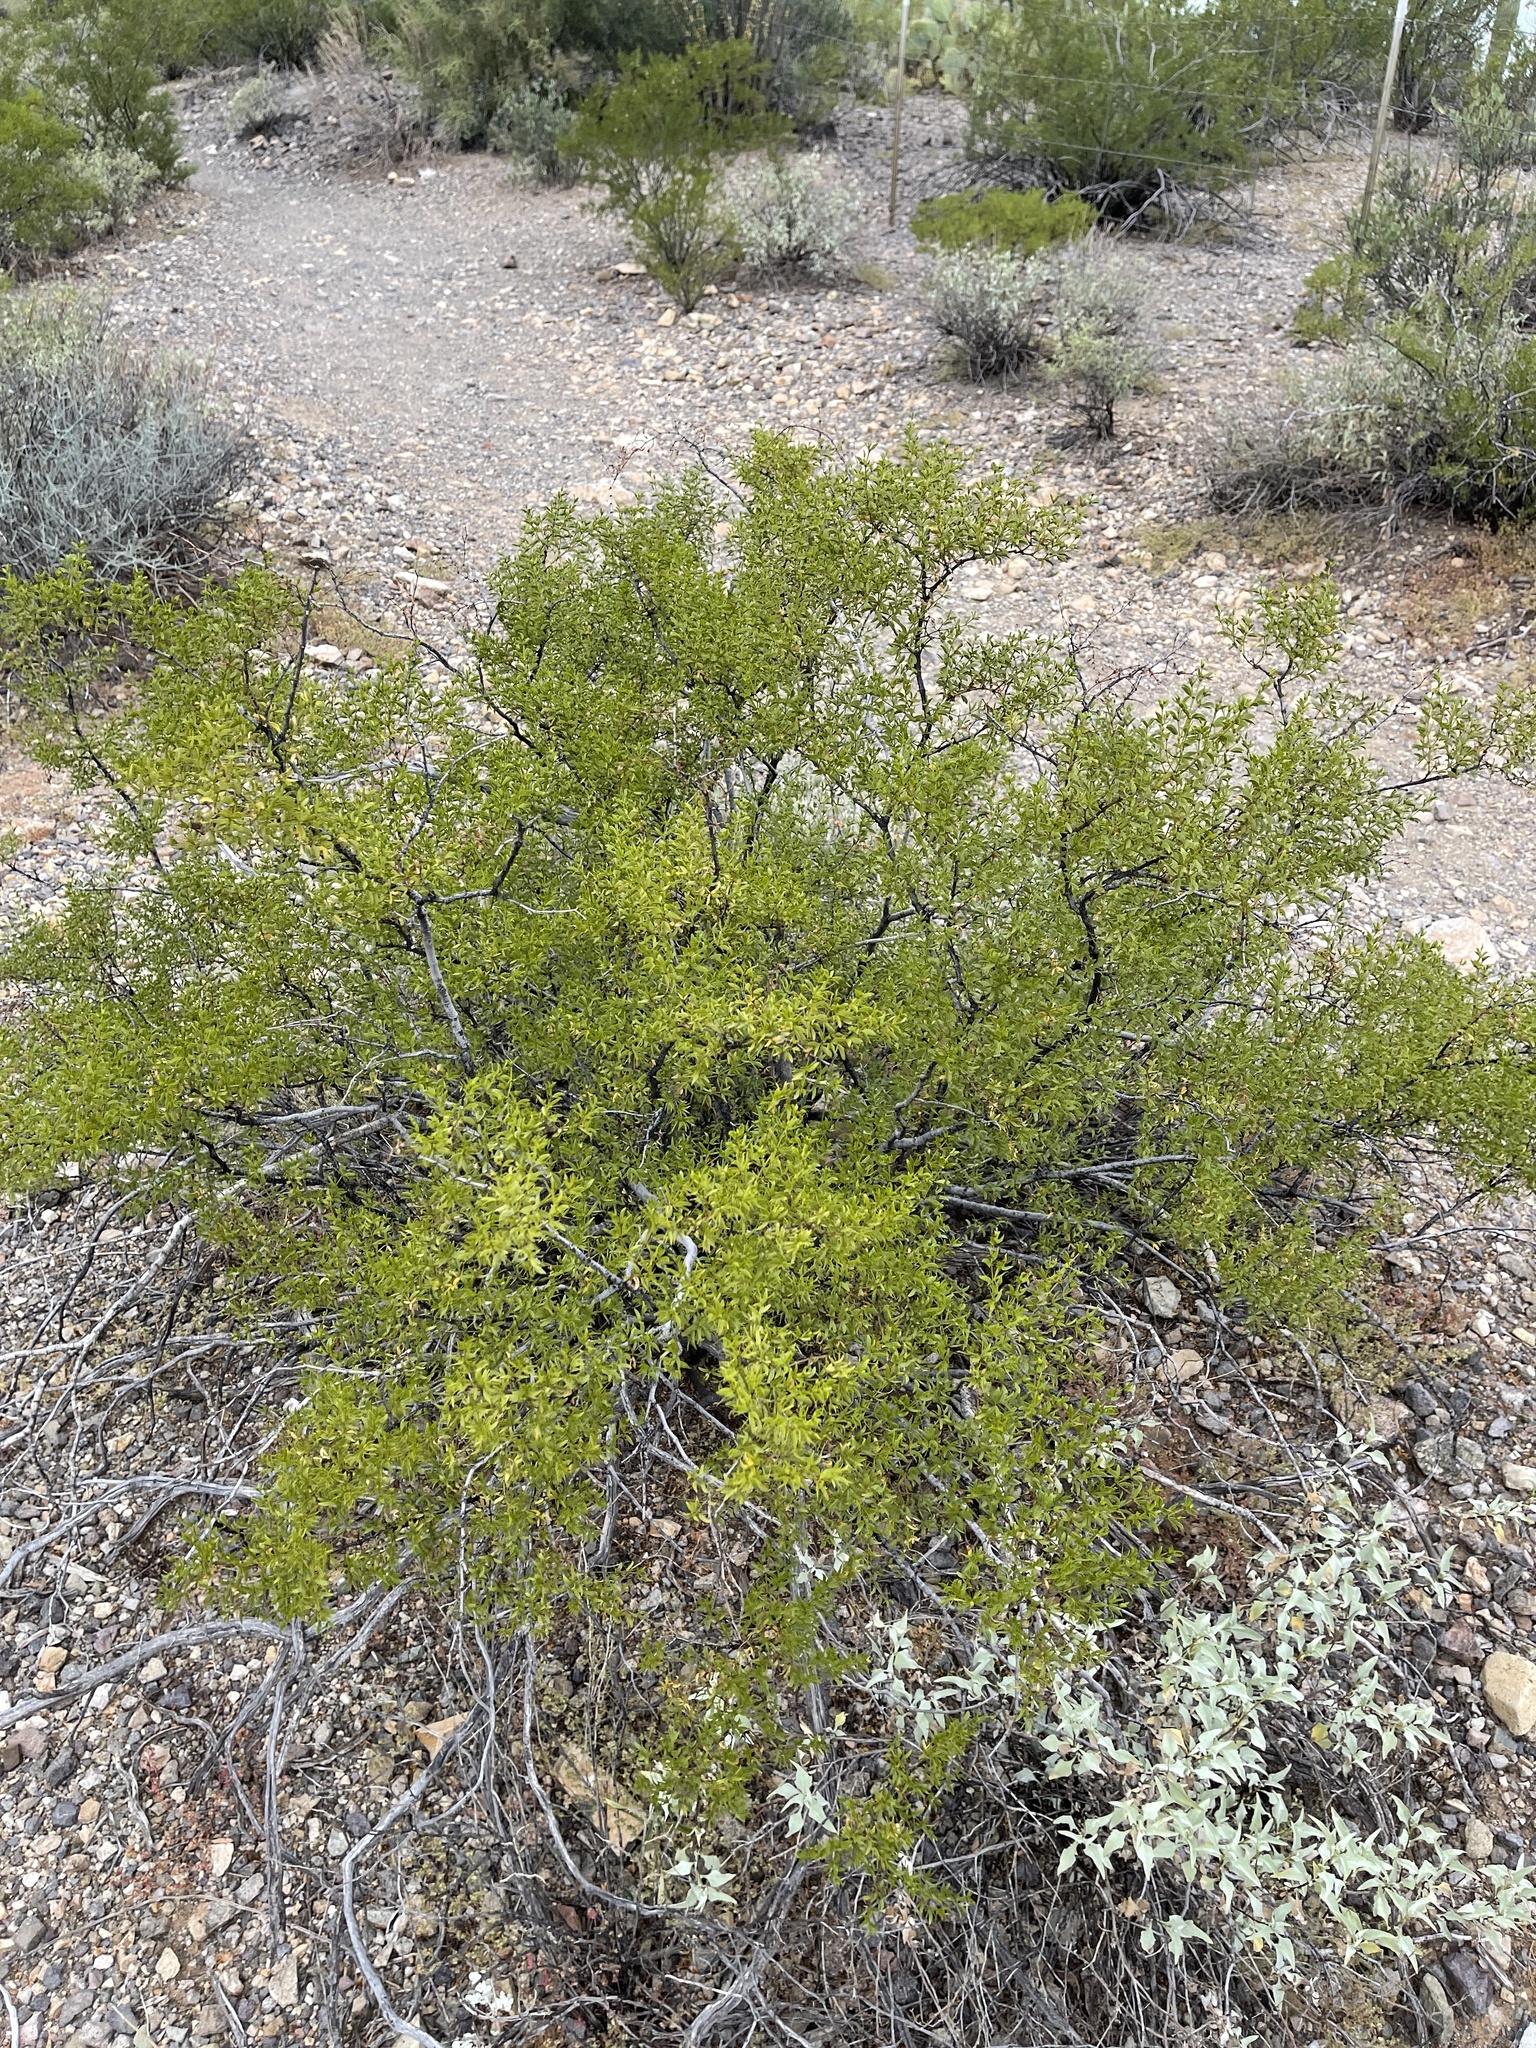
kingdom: Plantae
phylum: Tracheophyta
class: Magnoliopsida
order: Zygophyllales
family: Zygophyllaceae
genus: Larrea
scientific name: Larrea tridentata
